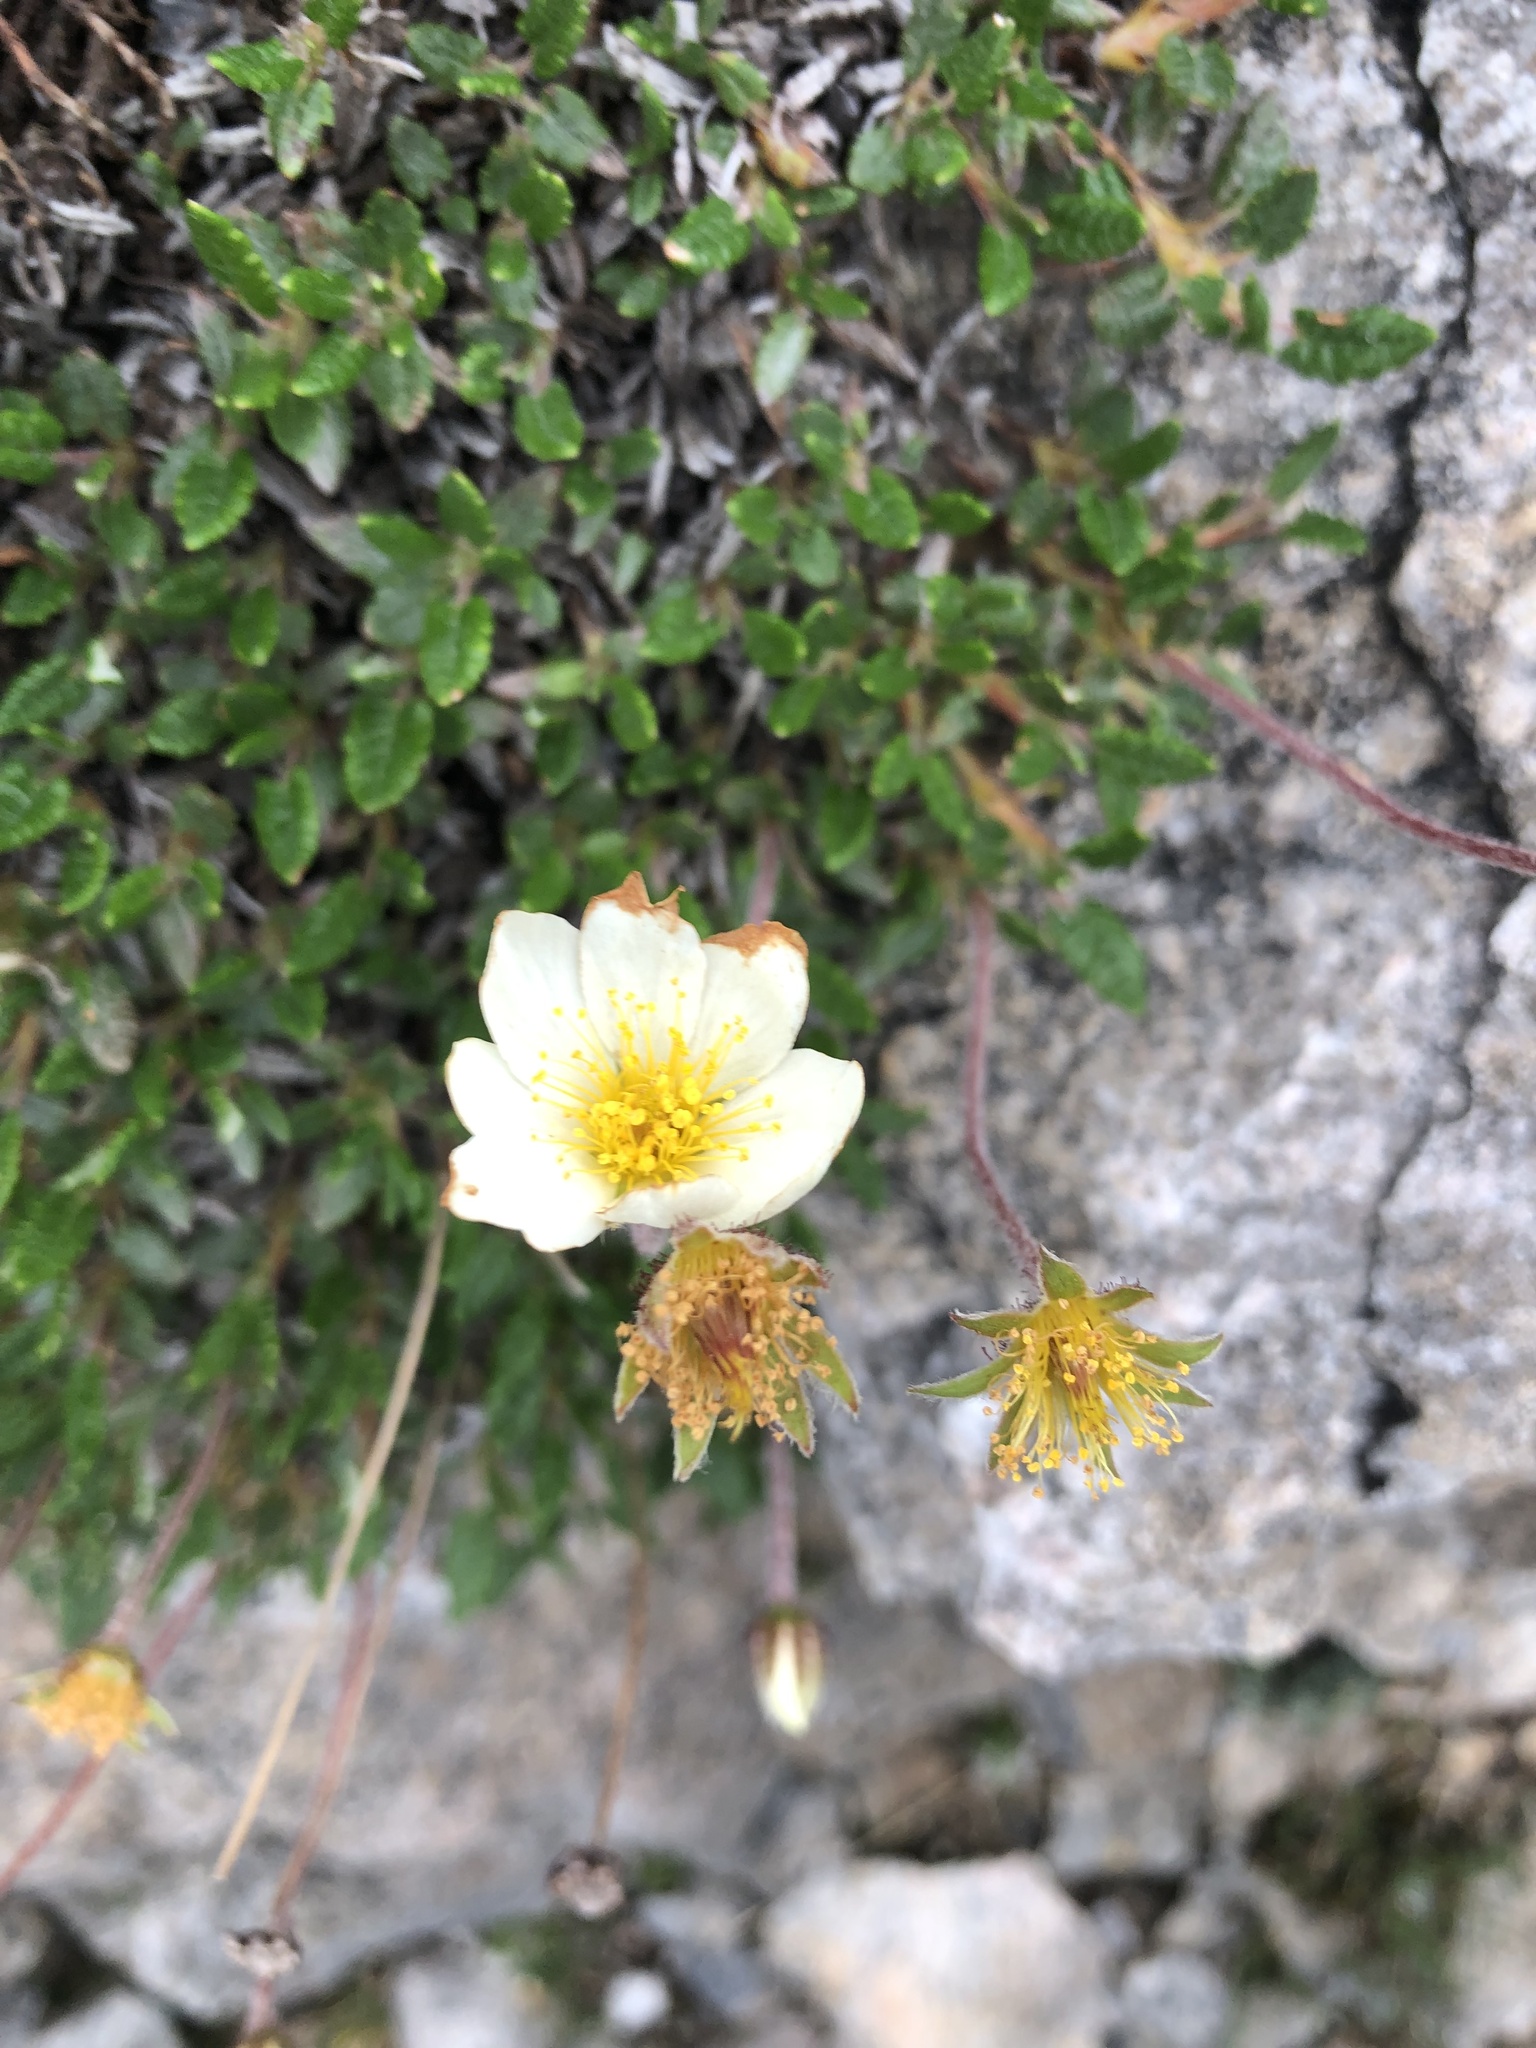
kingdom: Plantae
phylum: Tracheophyta
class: Magnoliopsida
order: Rosales
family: Rosaceae
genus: Dryas
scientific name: Dryas octopetala
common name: Eight-petal mountain-avens
